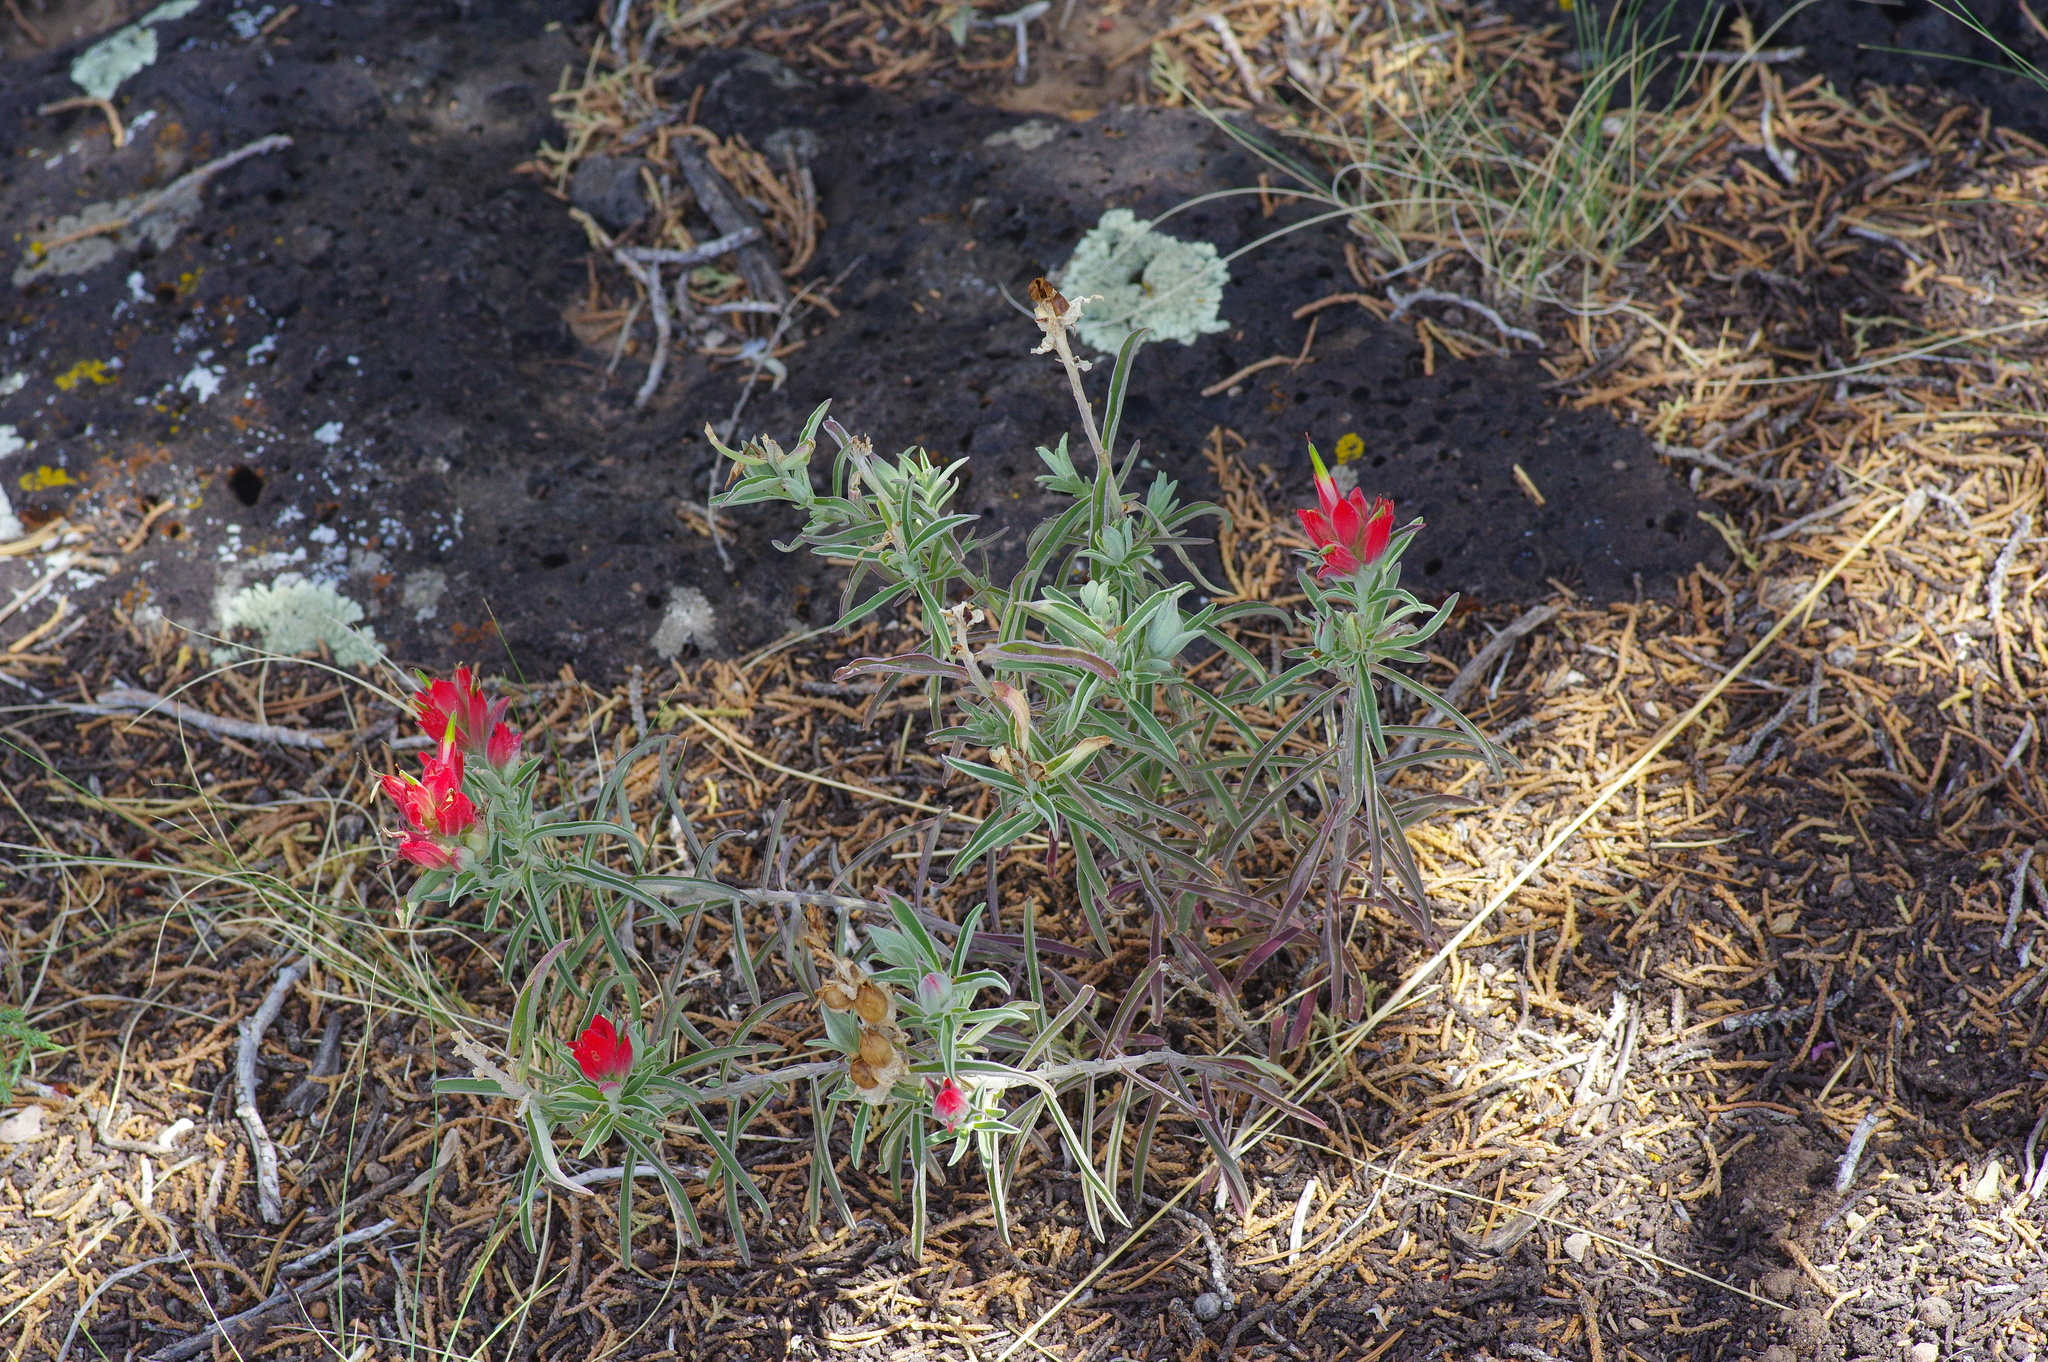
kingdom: Plantae
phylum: Tracheophyta
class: Magnoliopsida
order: Lamiales
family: Orobanchaceae
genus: Castilleja
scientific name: Castilleja integra
